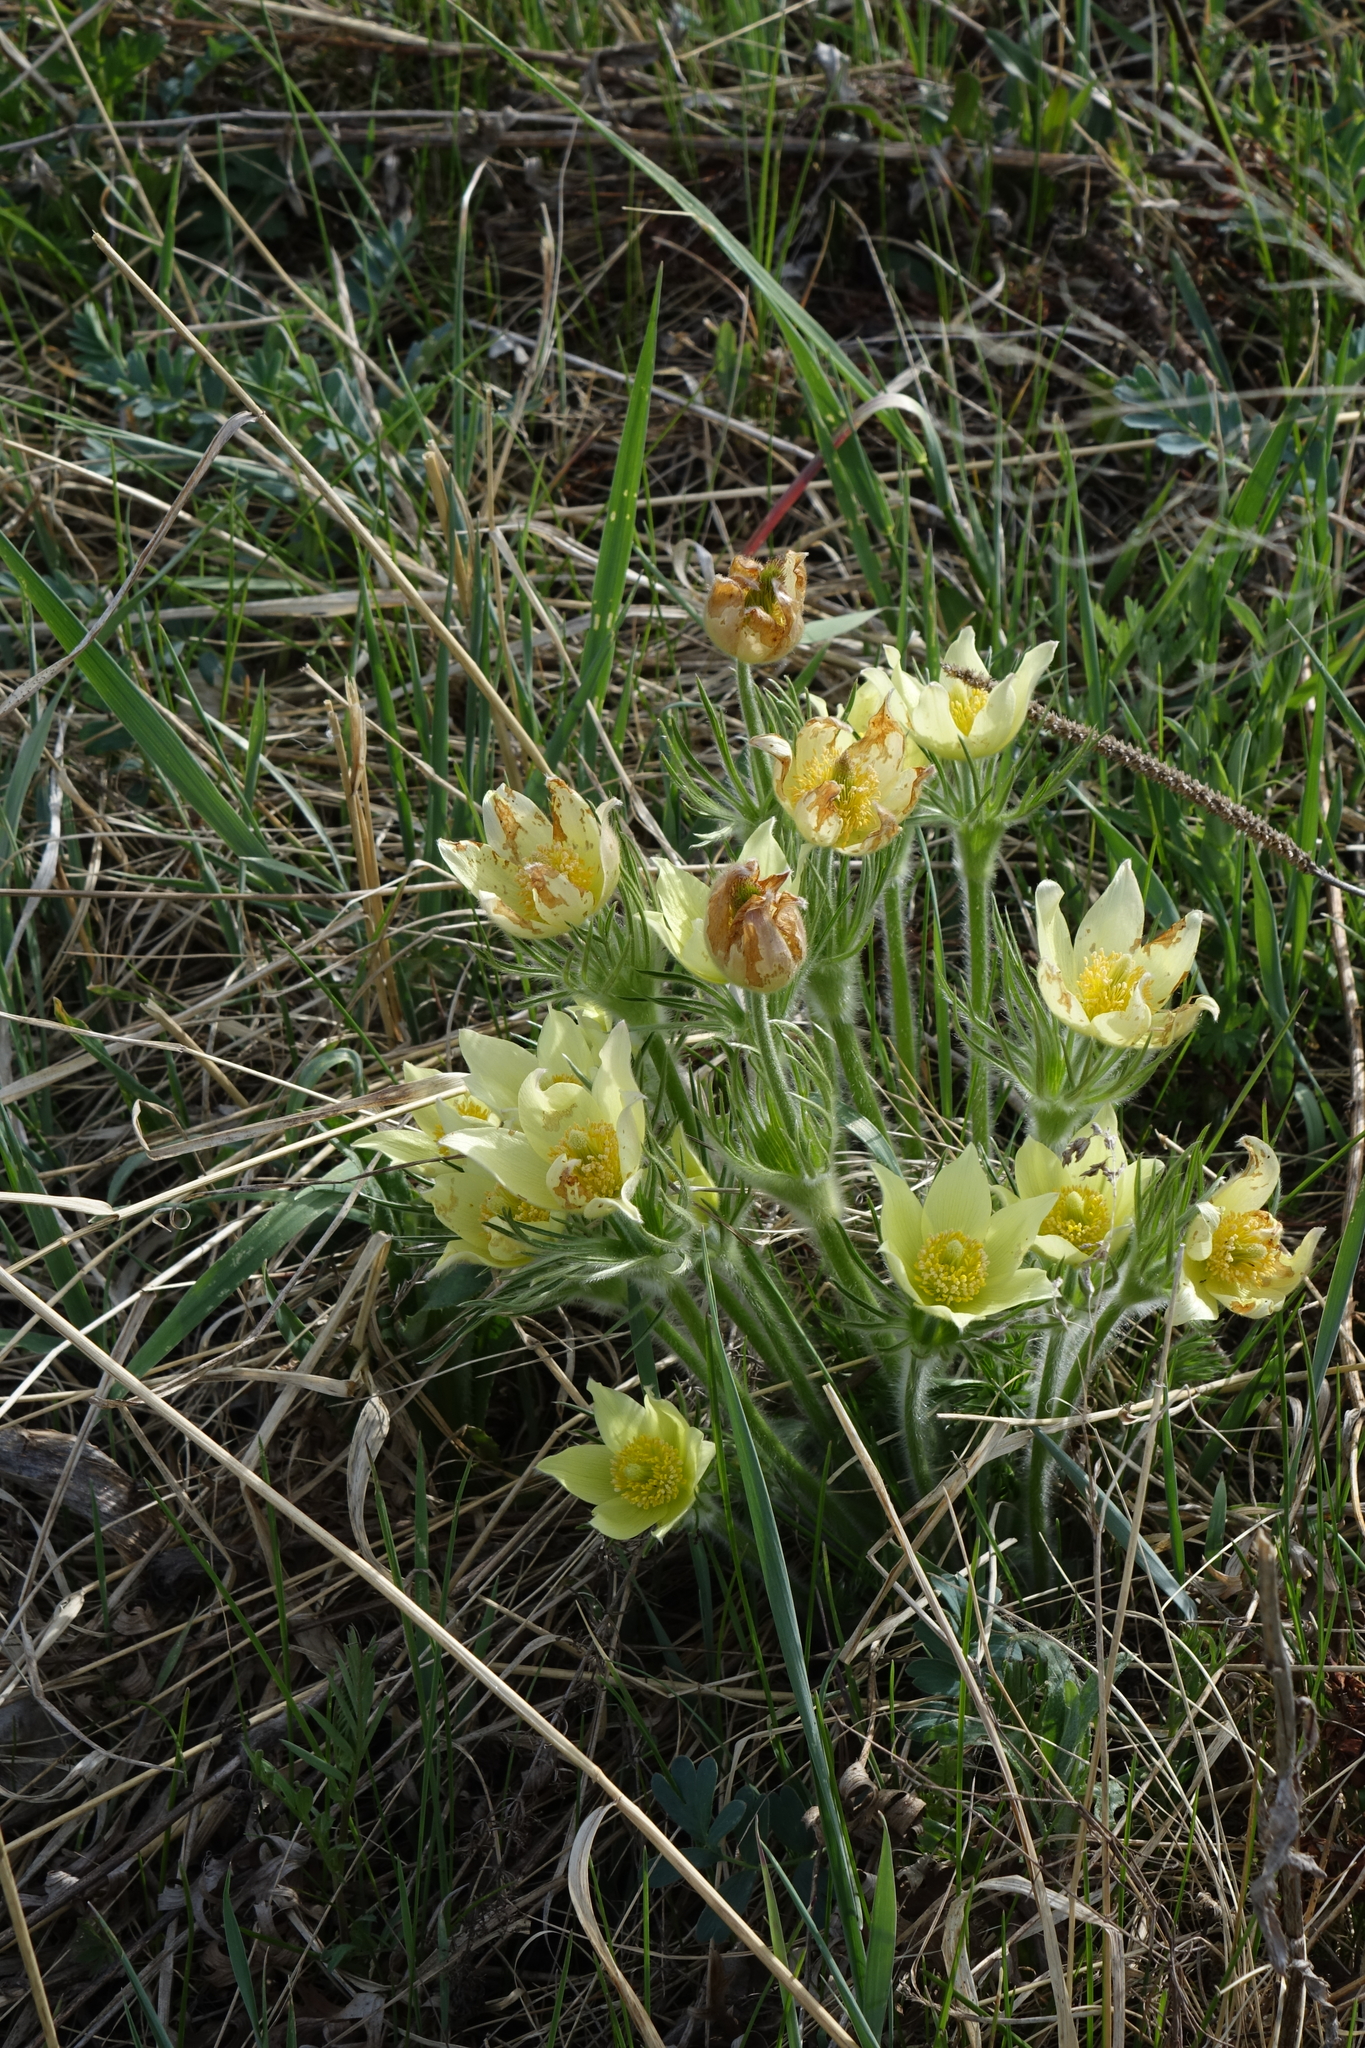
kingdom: Plantae
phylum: Tracheophyta
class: Magnoliopsida
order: Ranunculales
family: Ranunculaceae
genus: Pulsatilla
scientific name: Pulsatilla patens
